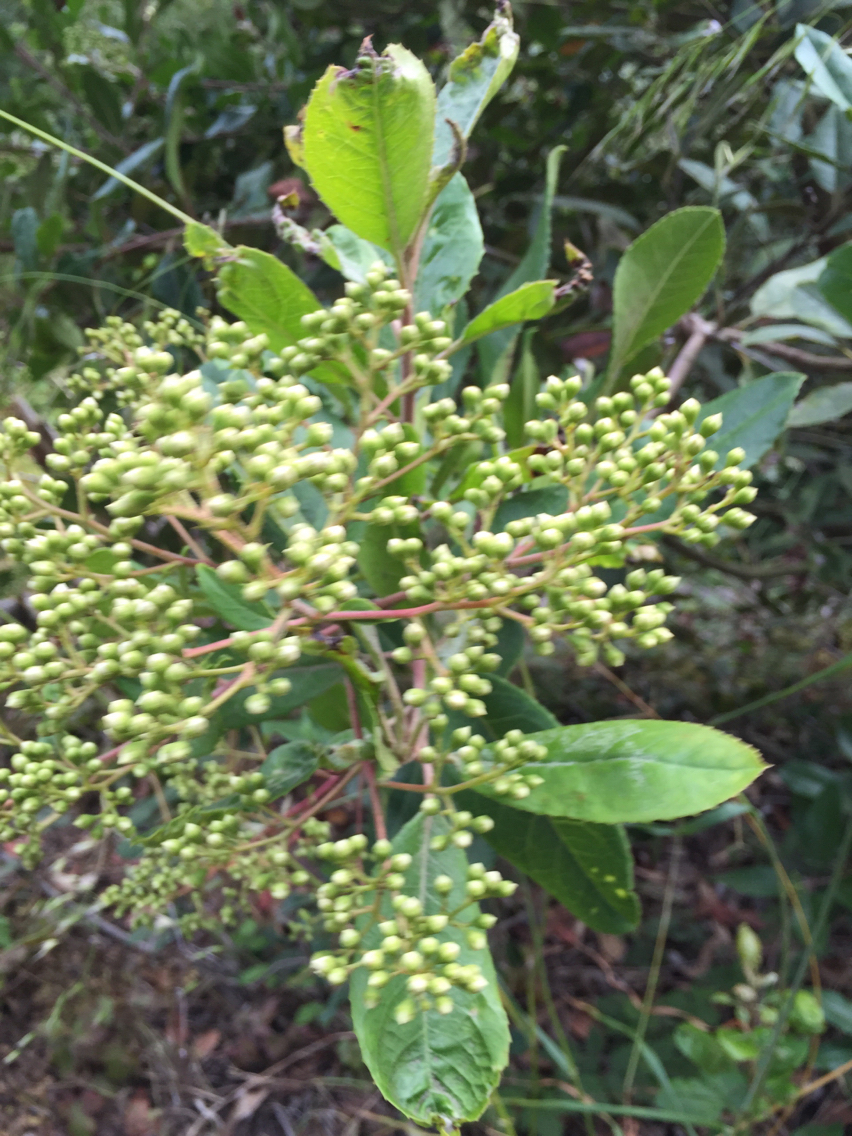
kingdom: Plantae
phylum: Tracheophyta
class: Magnoliopsida
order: Rosales
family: Rosaceae
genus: Heteromeles
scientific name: Heteromeles arbutifolia
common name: California-holly
